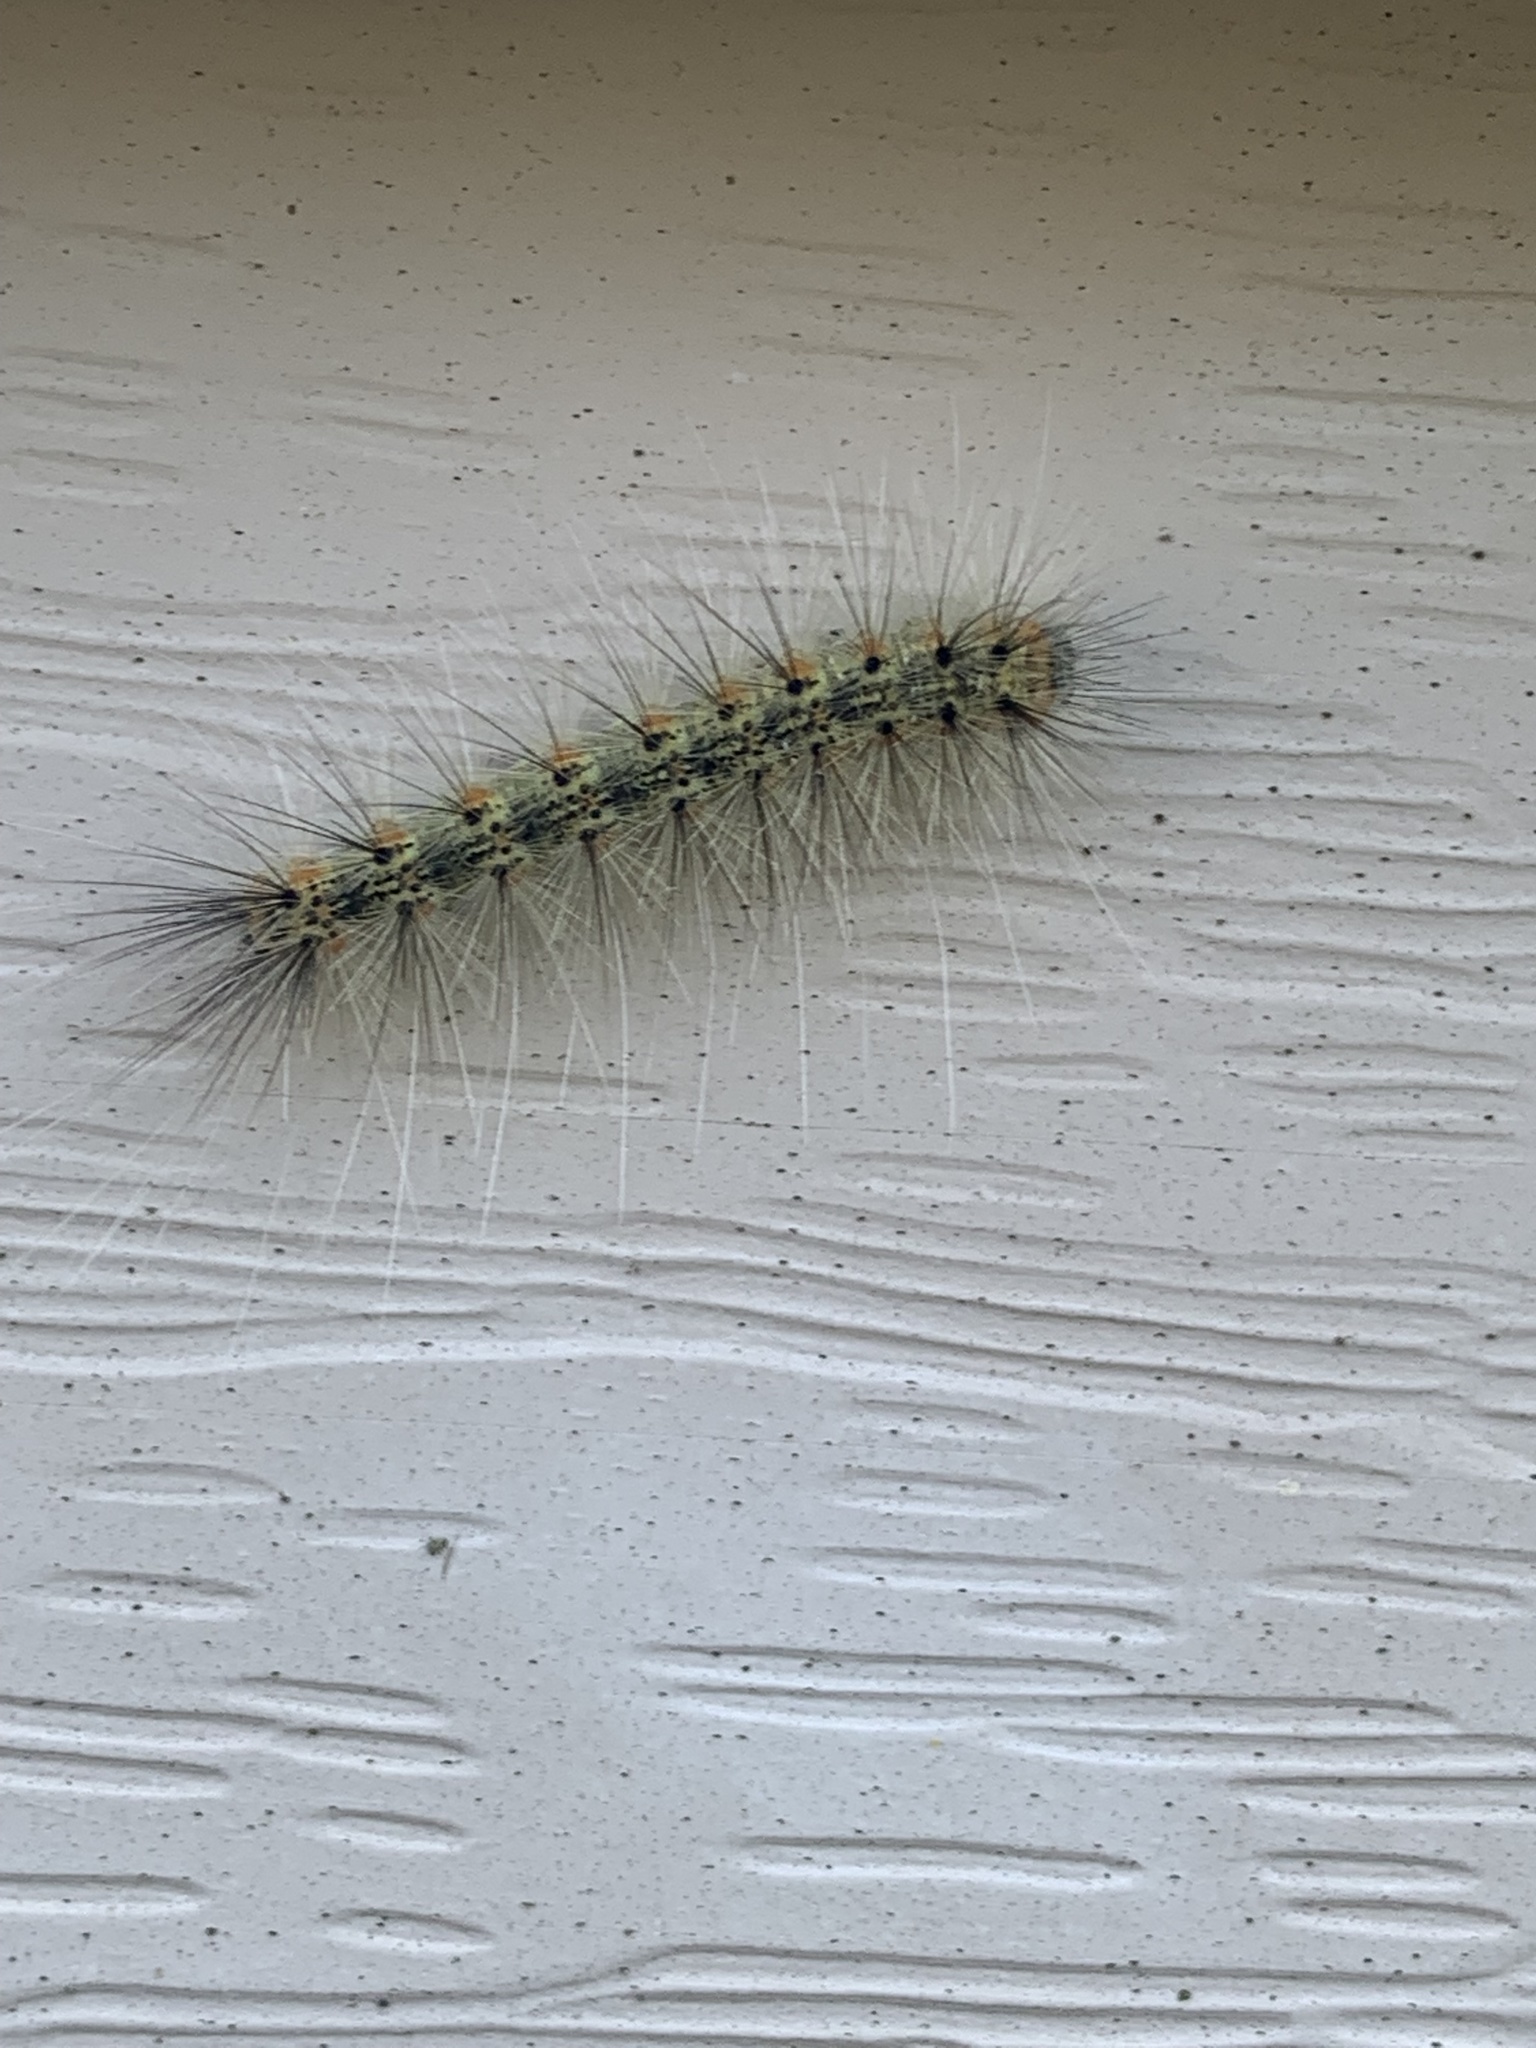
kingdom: Animalia
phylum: Arthropoda
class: Insecta
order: Lepidoptera
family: Erebidae
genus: Hyphantria
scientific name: Hyphantria cunea
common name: American white moth
